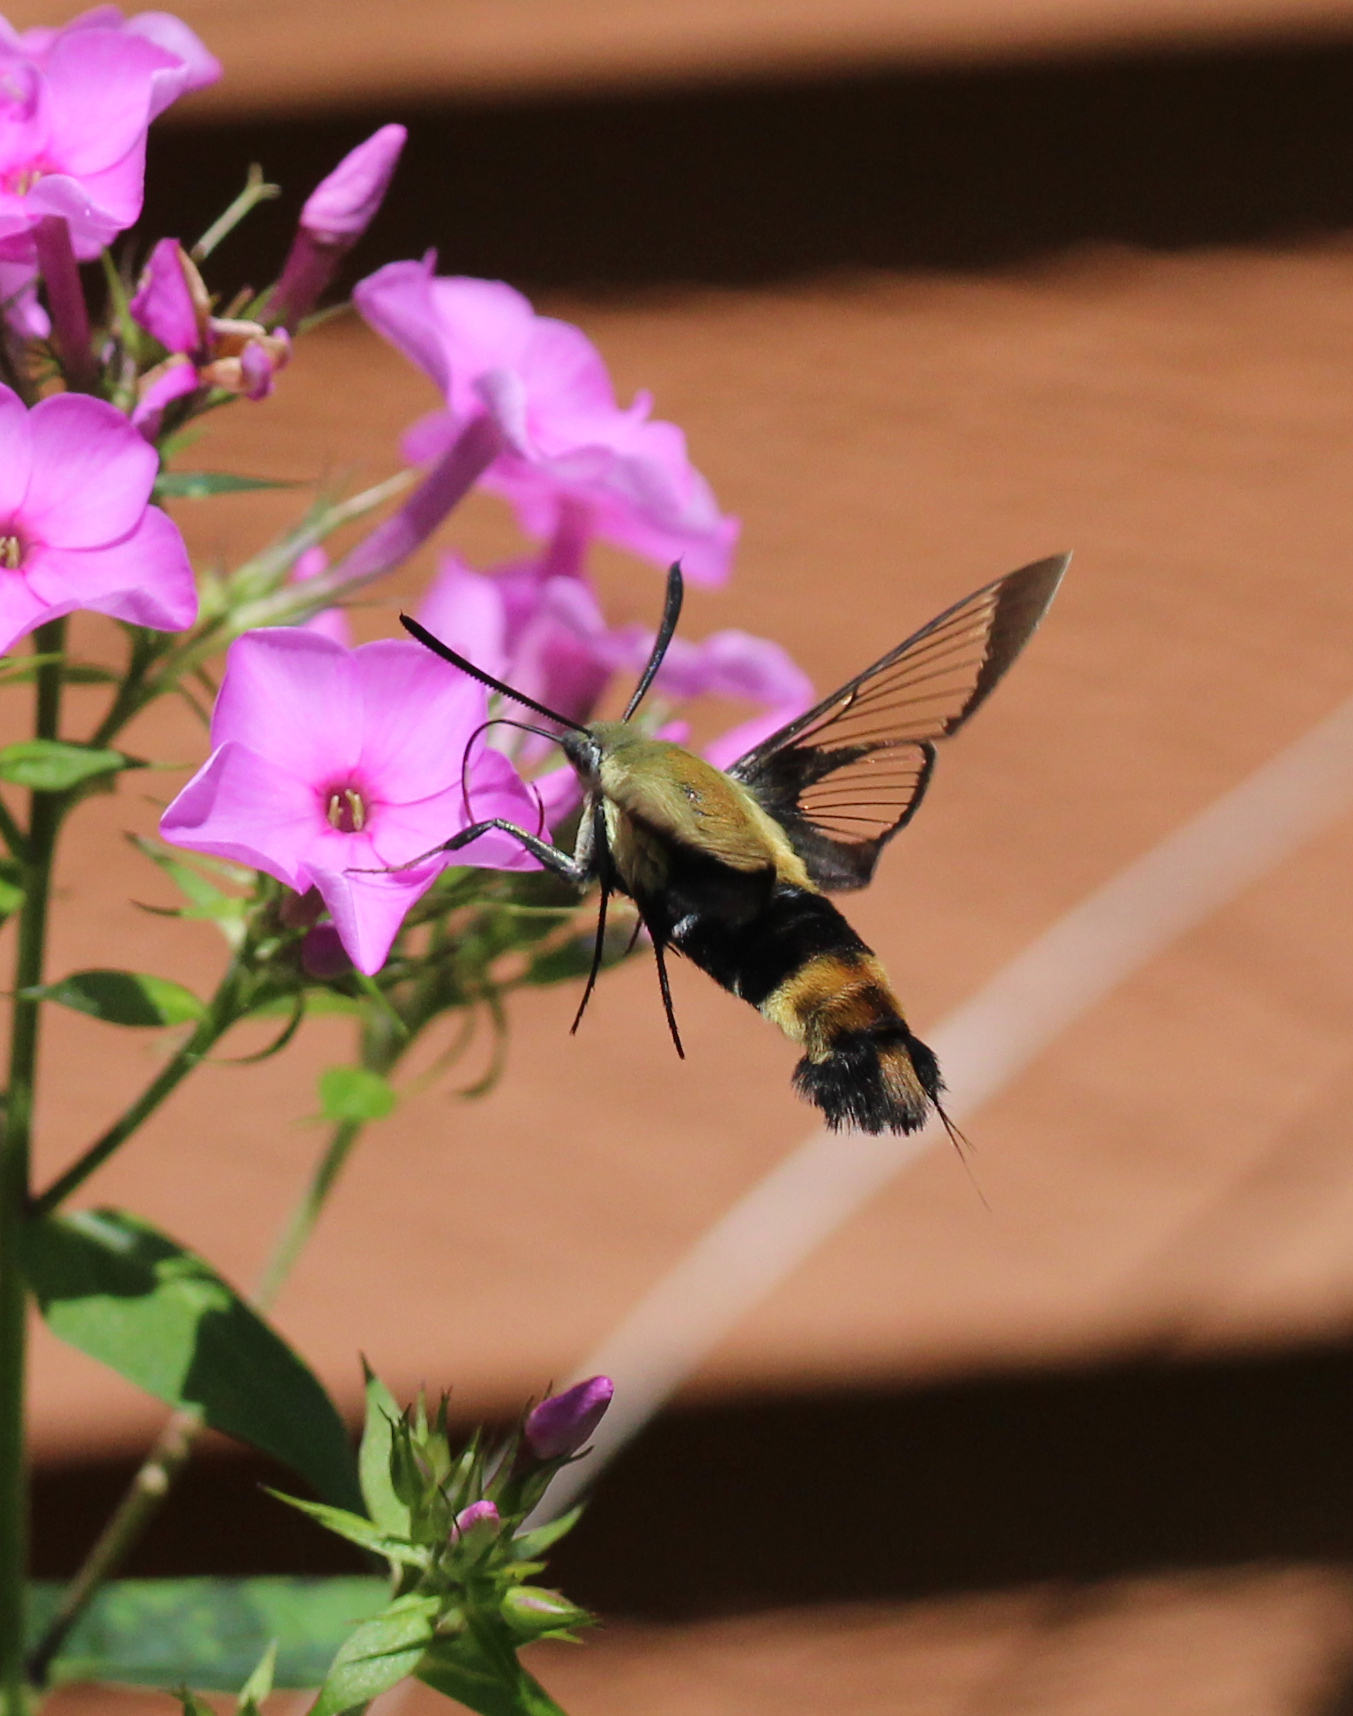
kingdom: Animalia
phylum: Arthropoda
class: Insecta
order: Lepidoptera
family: Sphingidae
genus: Hemaris
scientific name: Hemaris diffinis
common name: Bumblebee moth
